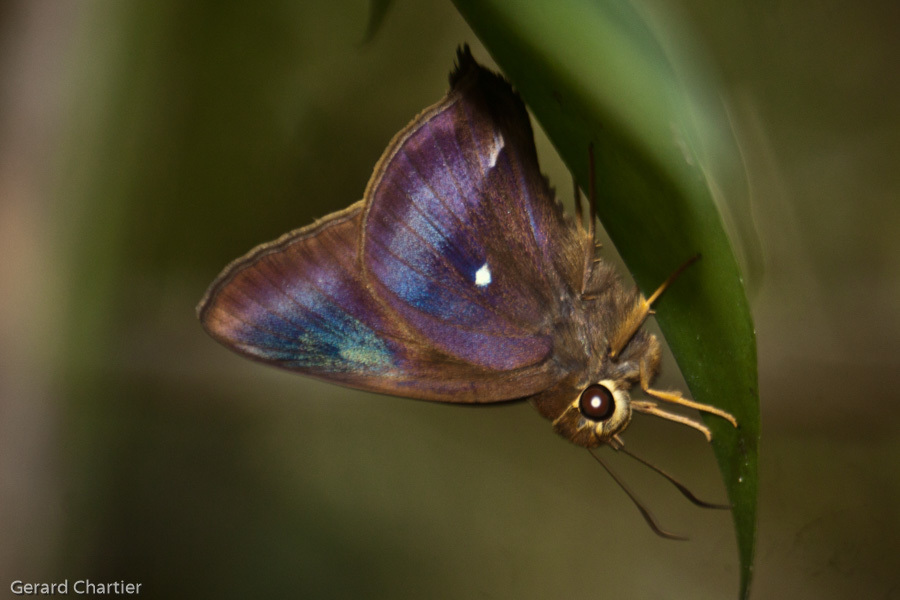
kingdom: Animalia
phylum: Arthropoda
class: Insecta
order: Lepidoptera
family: Hesperiidae
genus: Hasora
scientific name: Hasora badra
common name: Common awl
